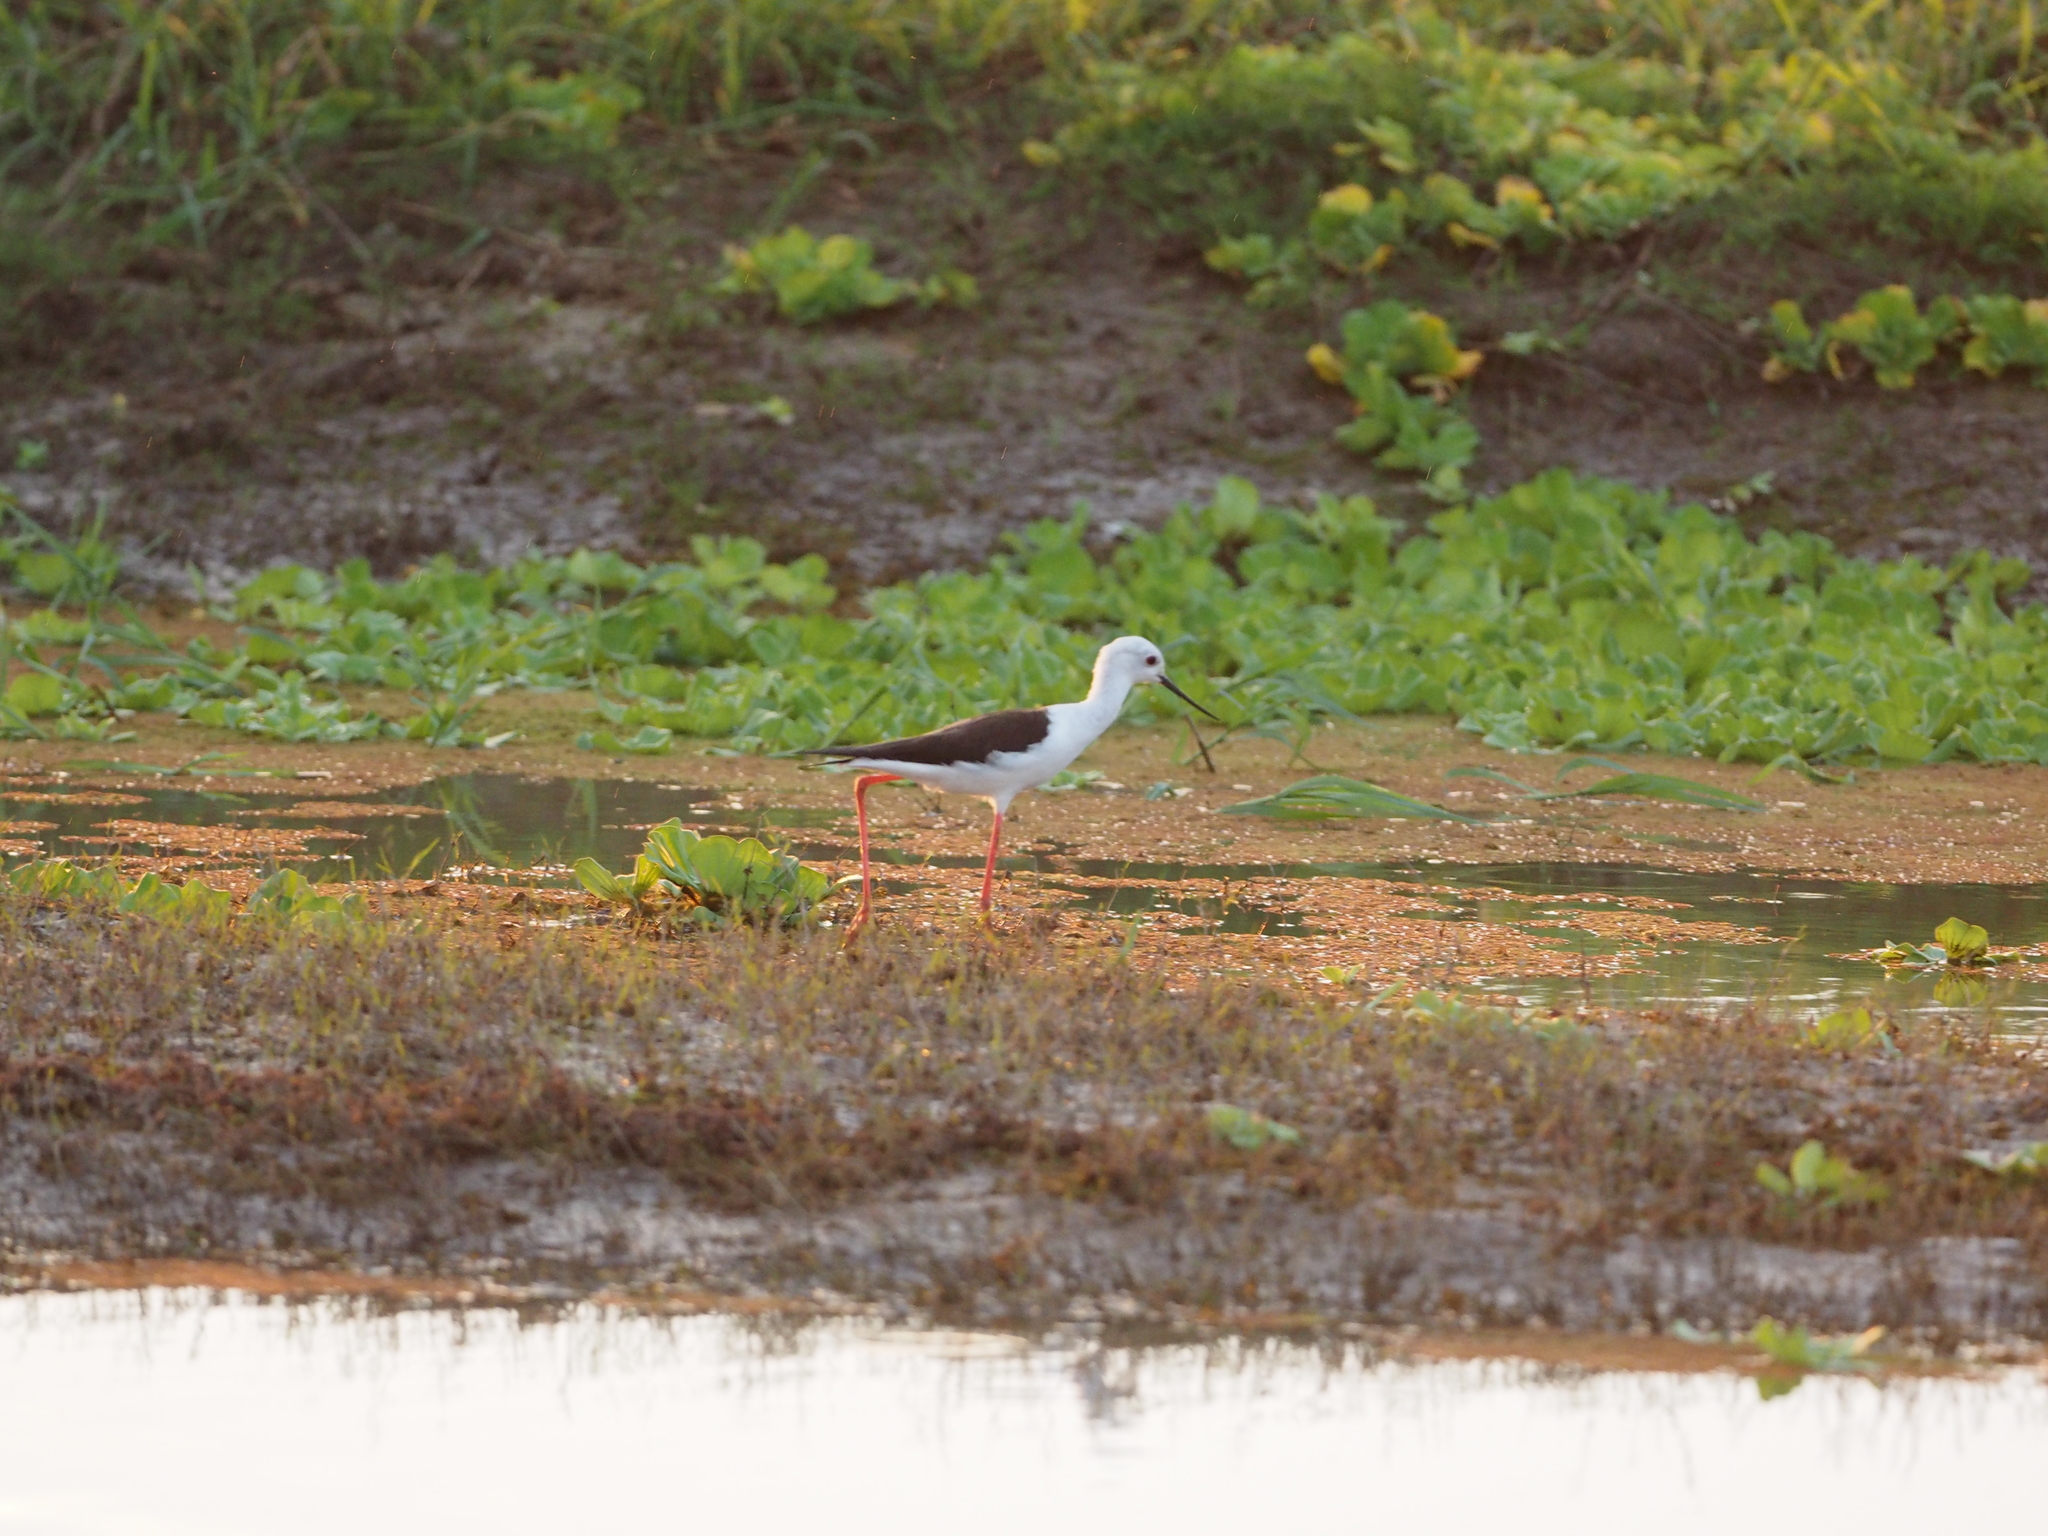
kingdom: Animalia
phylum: Chordata
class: Aves
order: Charadriiformes
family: Recurvirostridae
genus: Himantopus
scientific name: Himantopus himantopus
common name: Black-winged stilt
